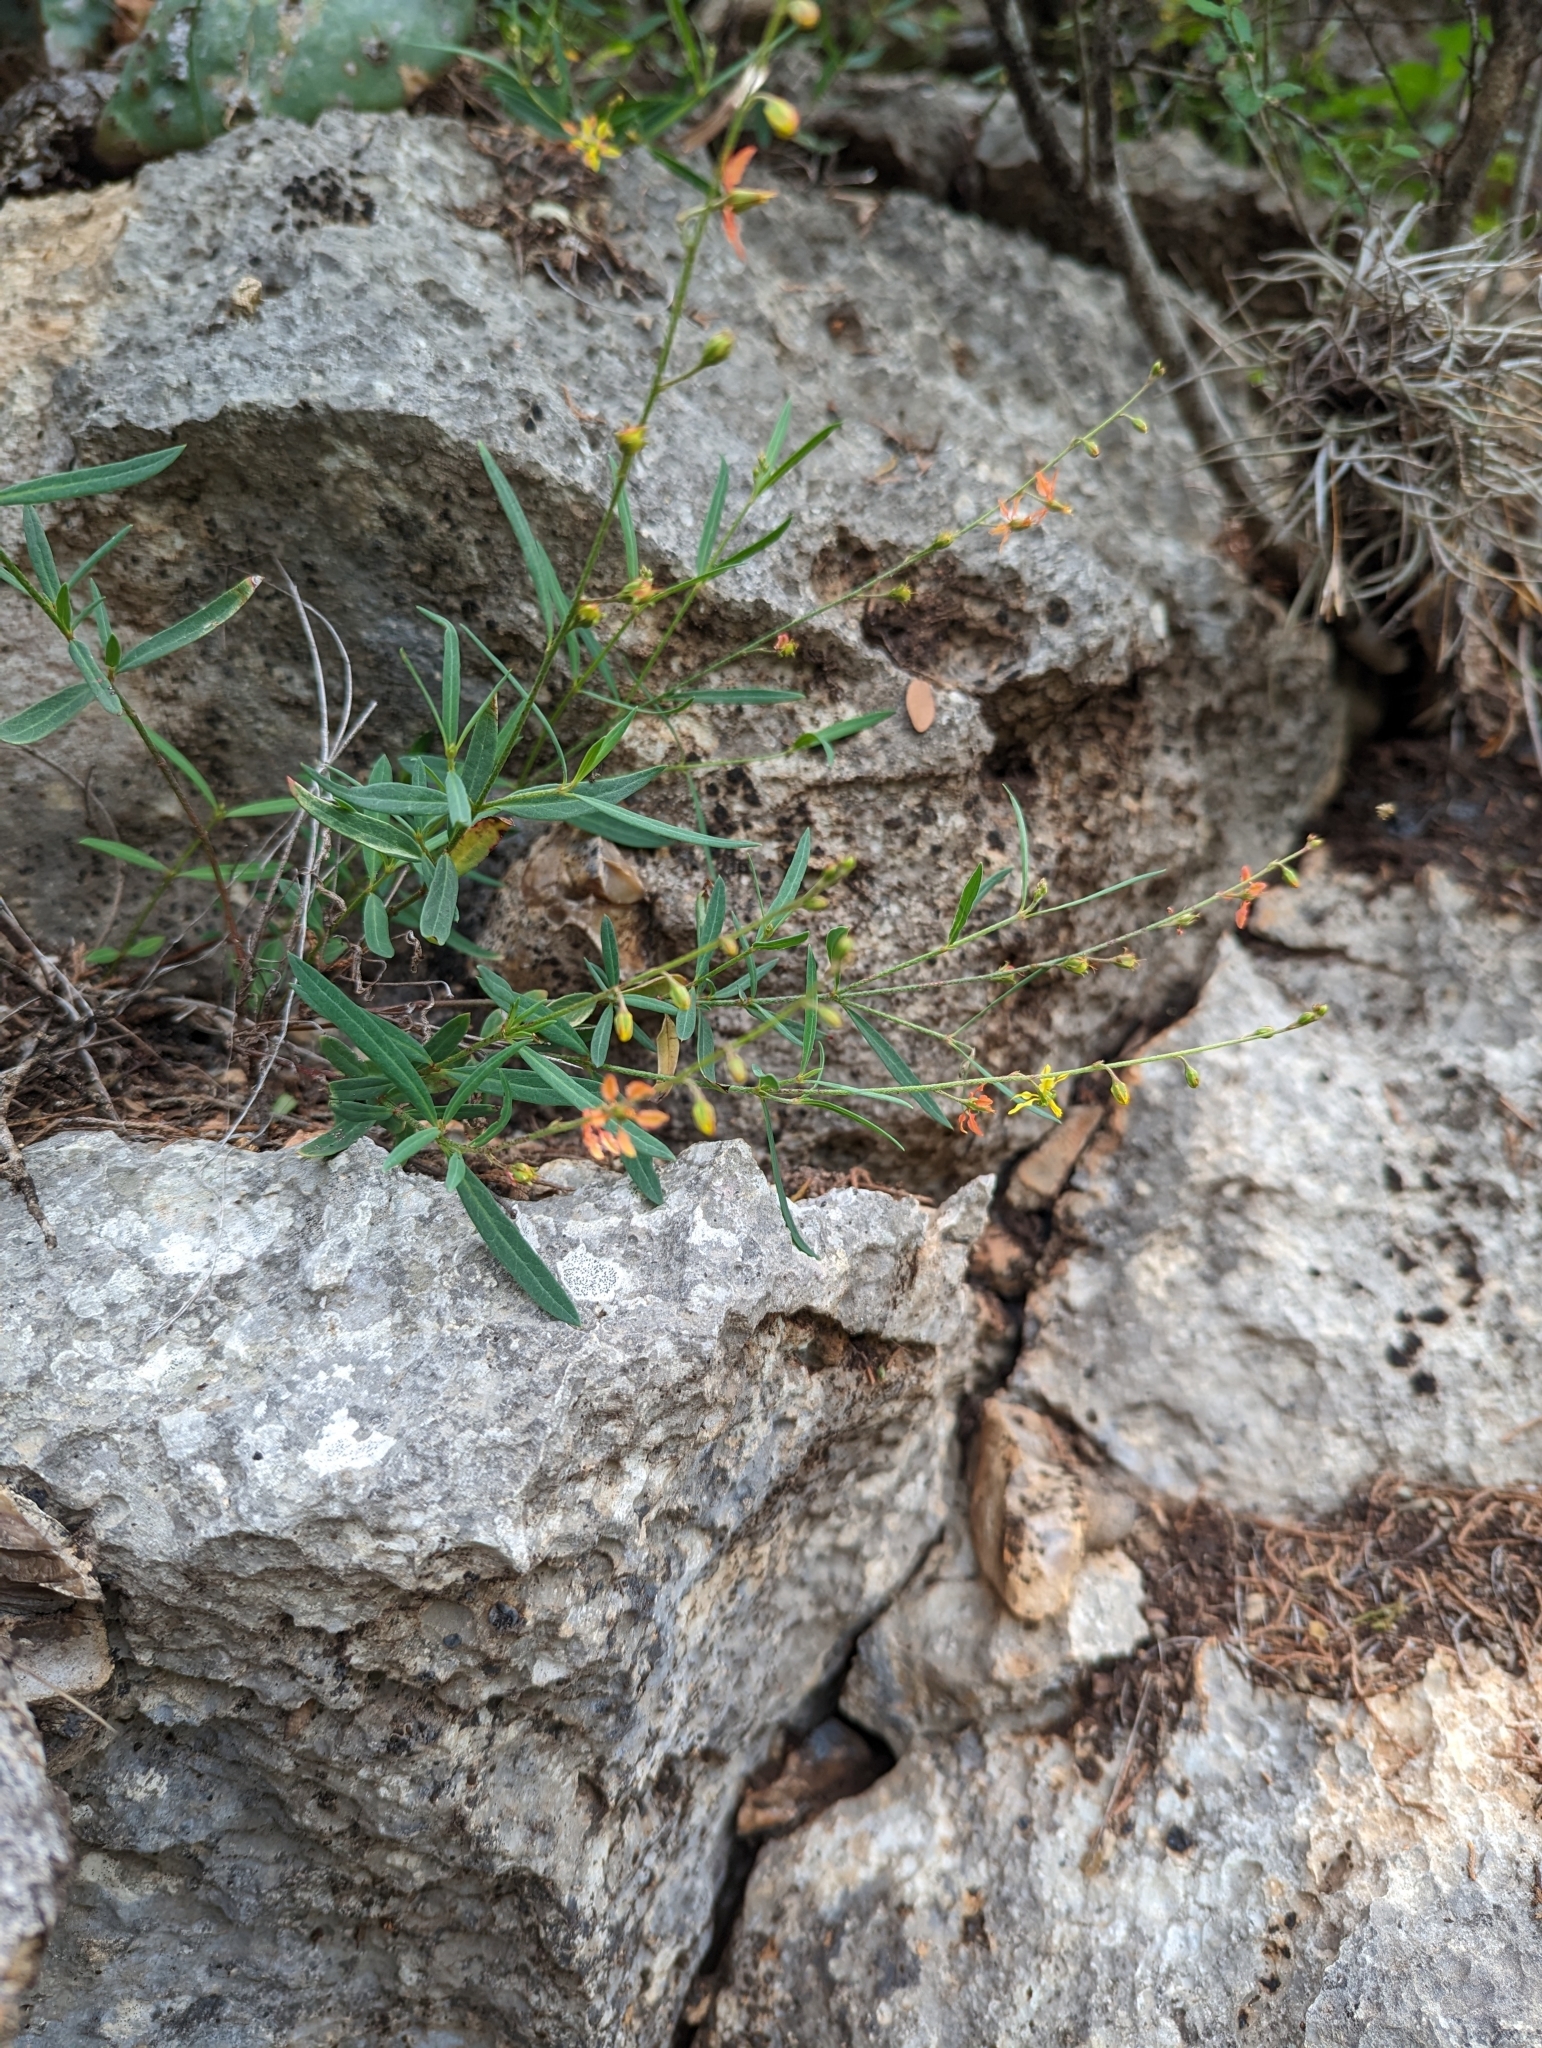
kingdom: Plantae
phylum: Tracheophyta
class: Magnoliopsida
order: Malpighiales
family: Malpighiaceae
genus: Galphimia
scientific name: Galphimia angustifolia
